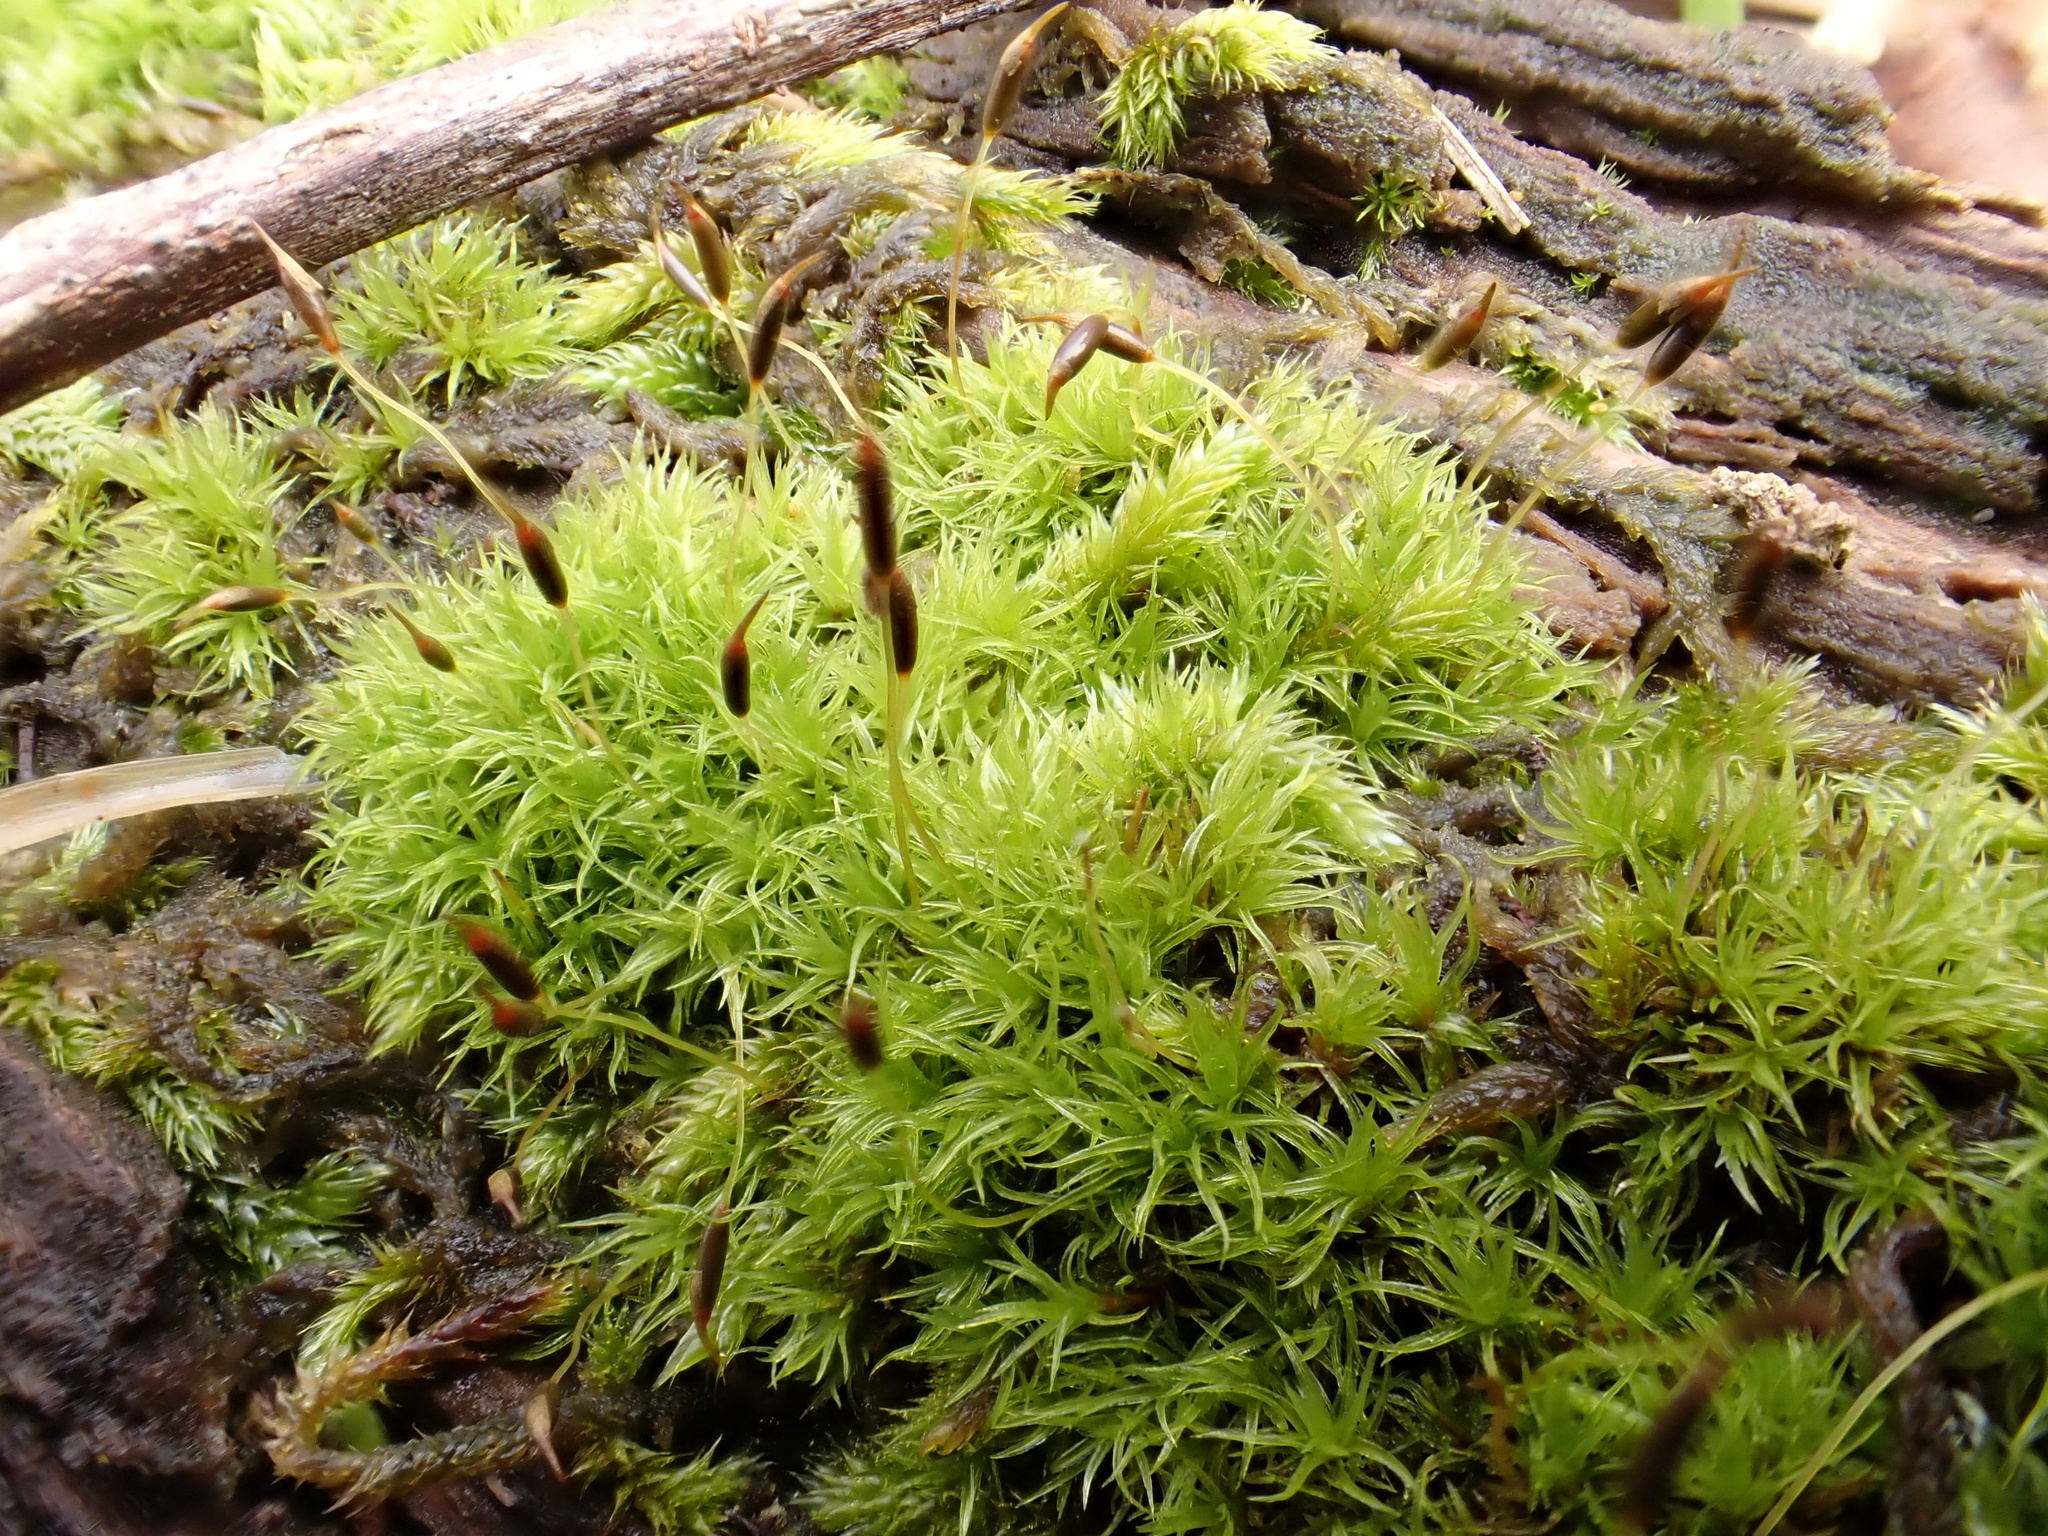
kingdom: Plantae
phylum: Bryophyta
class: Bryopsida
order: Dicranales
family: Rhabdoweisiaceae
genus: Dicranoweisia
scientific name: Dicranoweisia cirrata
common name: Common pincushion
